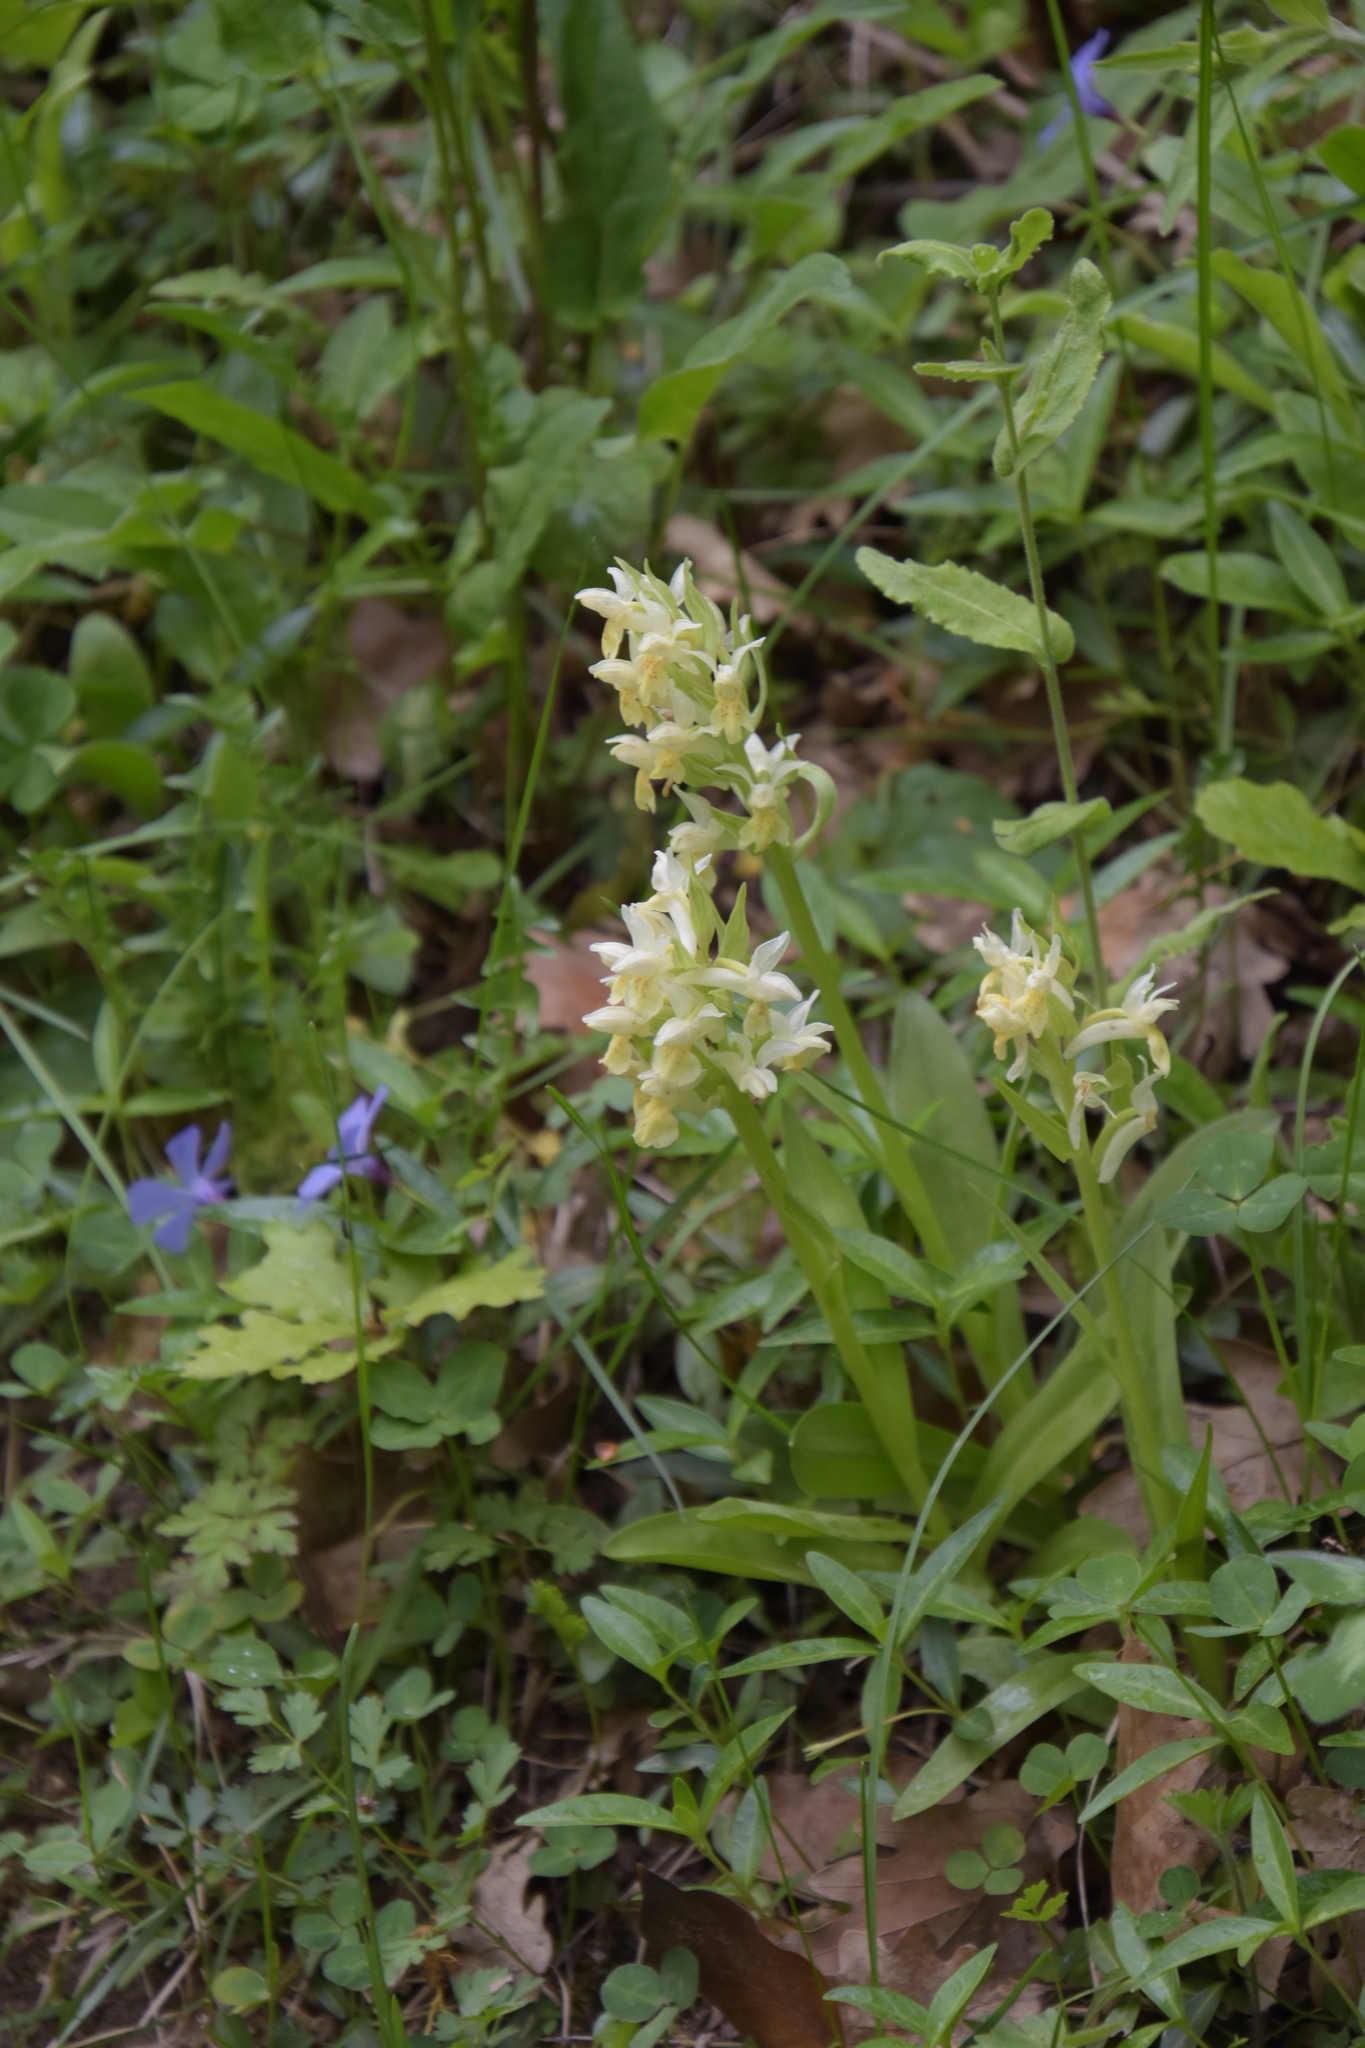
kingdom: Plantae
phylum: Tracheophyta
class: Liliopsida
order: Asparagales
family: Orchidaceae
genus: Dactylorhiza
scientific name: Dactylorhiza sambucina
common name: Elder-flowered orchid
